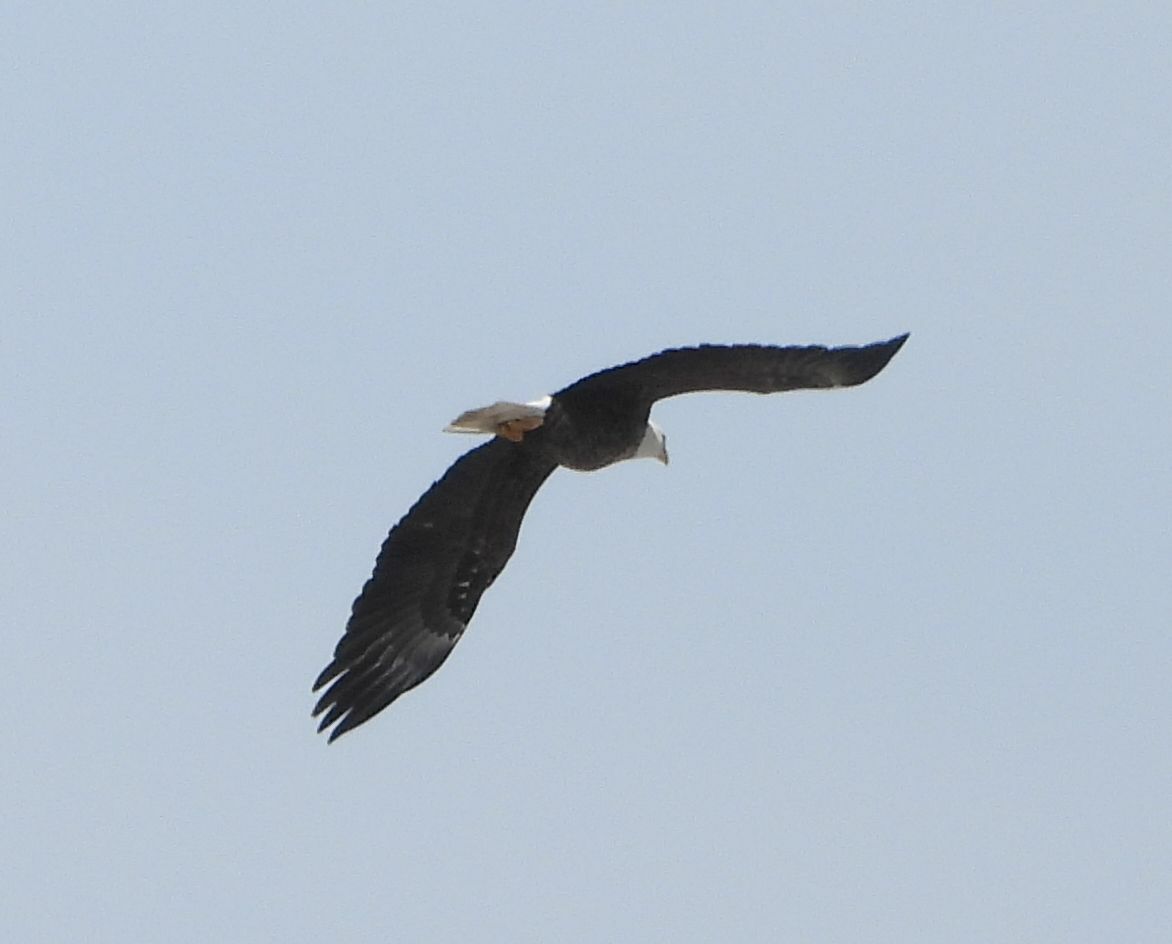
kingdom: Animalia
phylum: Chordata
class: Aves
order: Accipitriformes
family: Accipitridae
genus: Haliaeetus
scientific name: Haliaeetus leucocephalus
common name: Bald eagle
